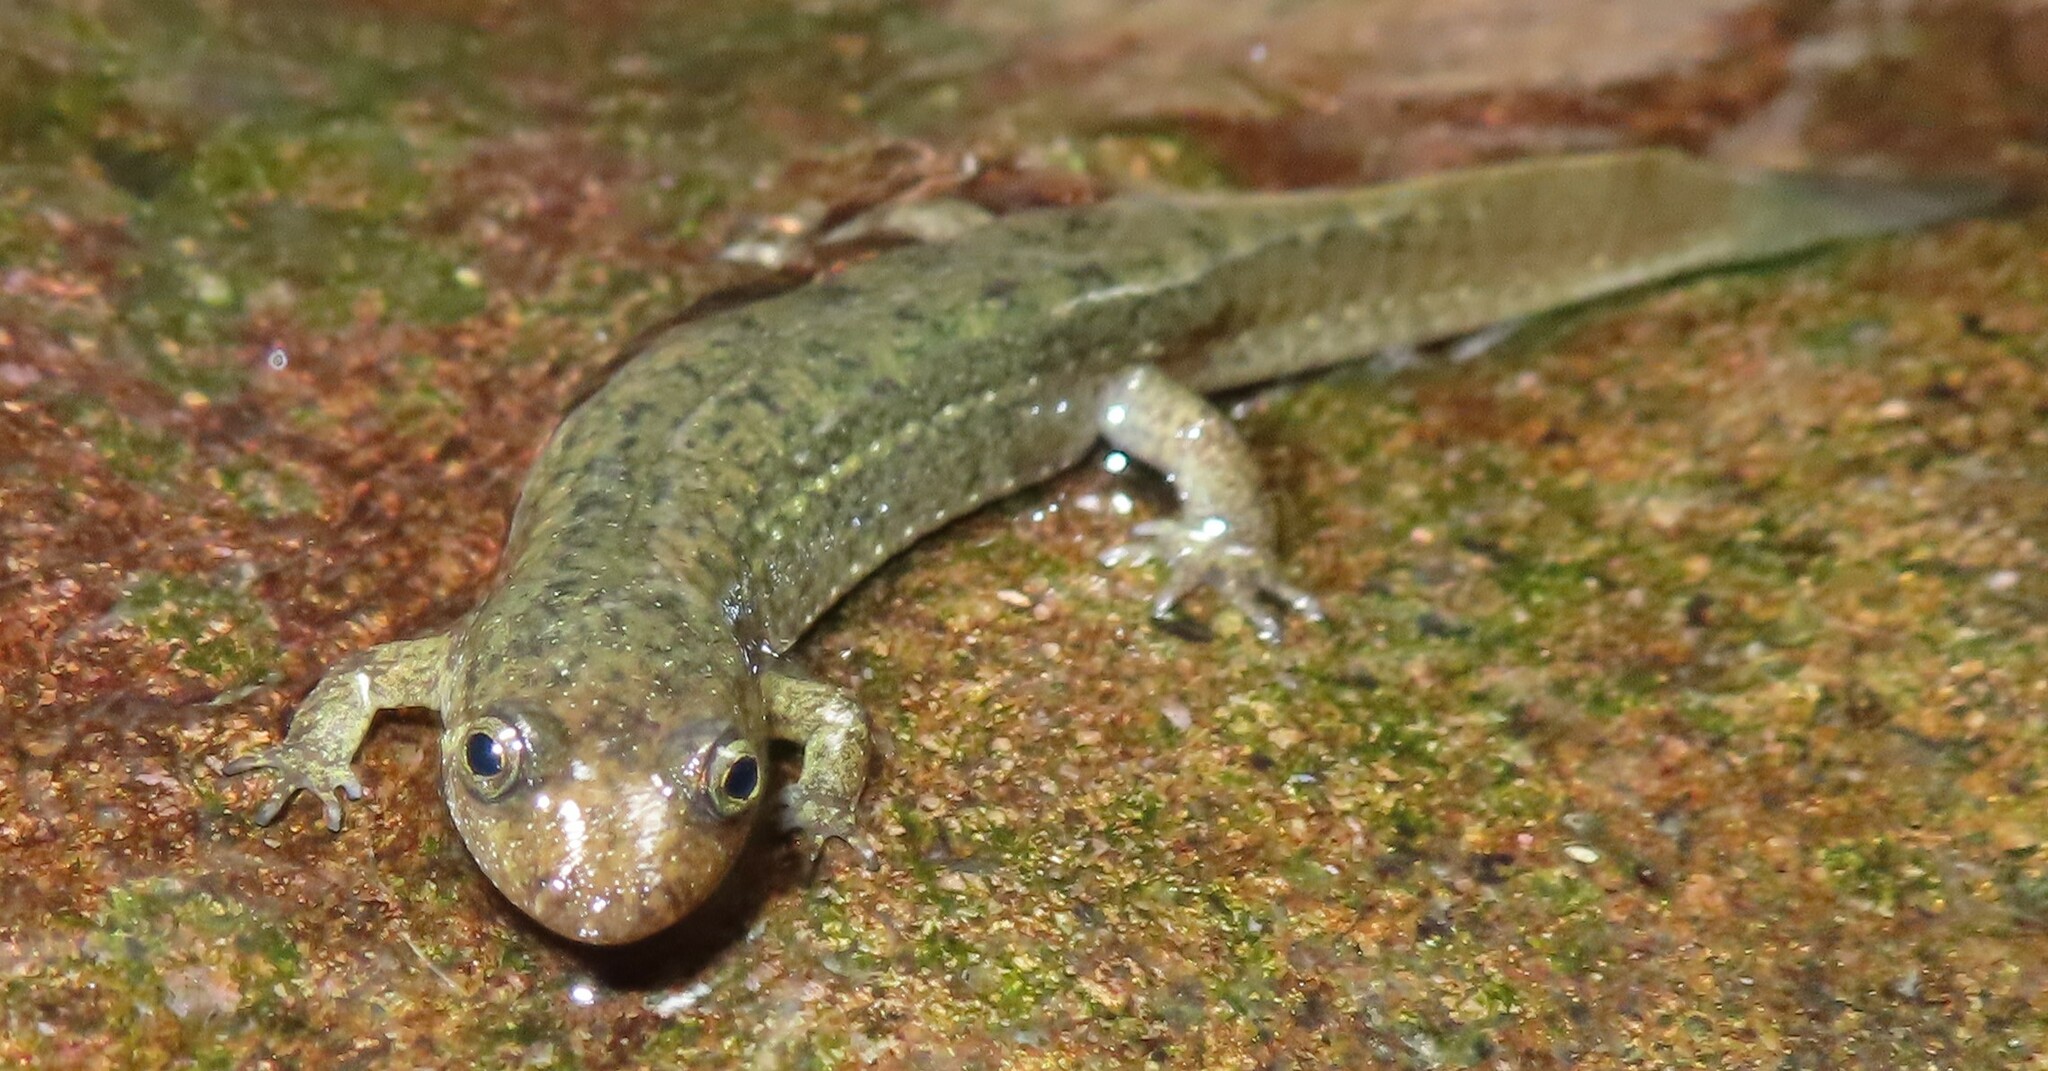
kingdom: Animalia
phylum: Chordata
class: Amphibia
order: Caudata
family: Plethodontidae
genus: Desmognathus
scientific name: Desmognathus
